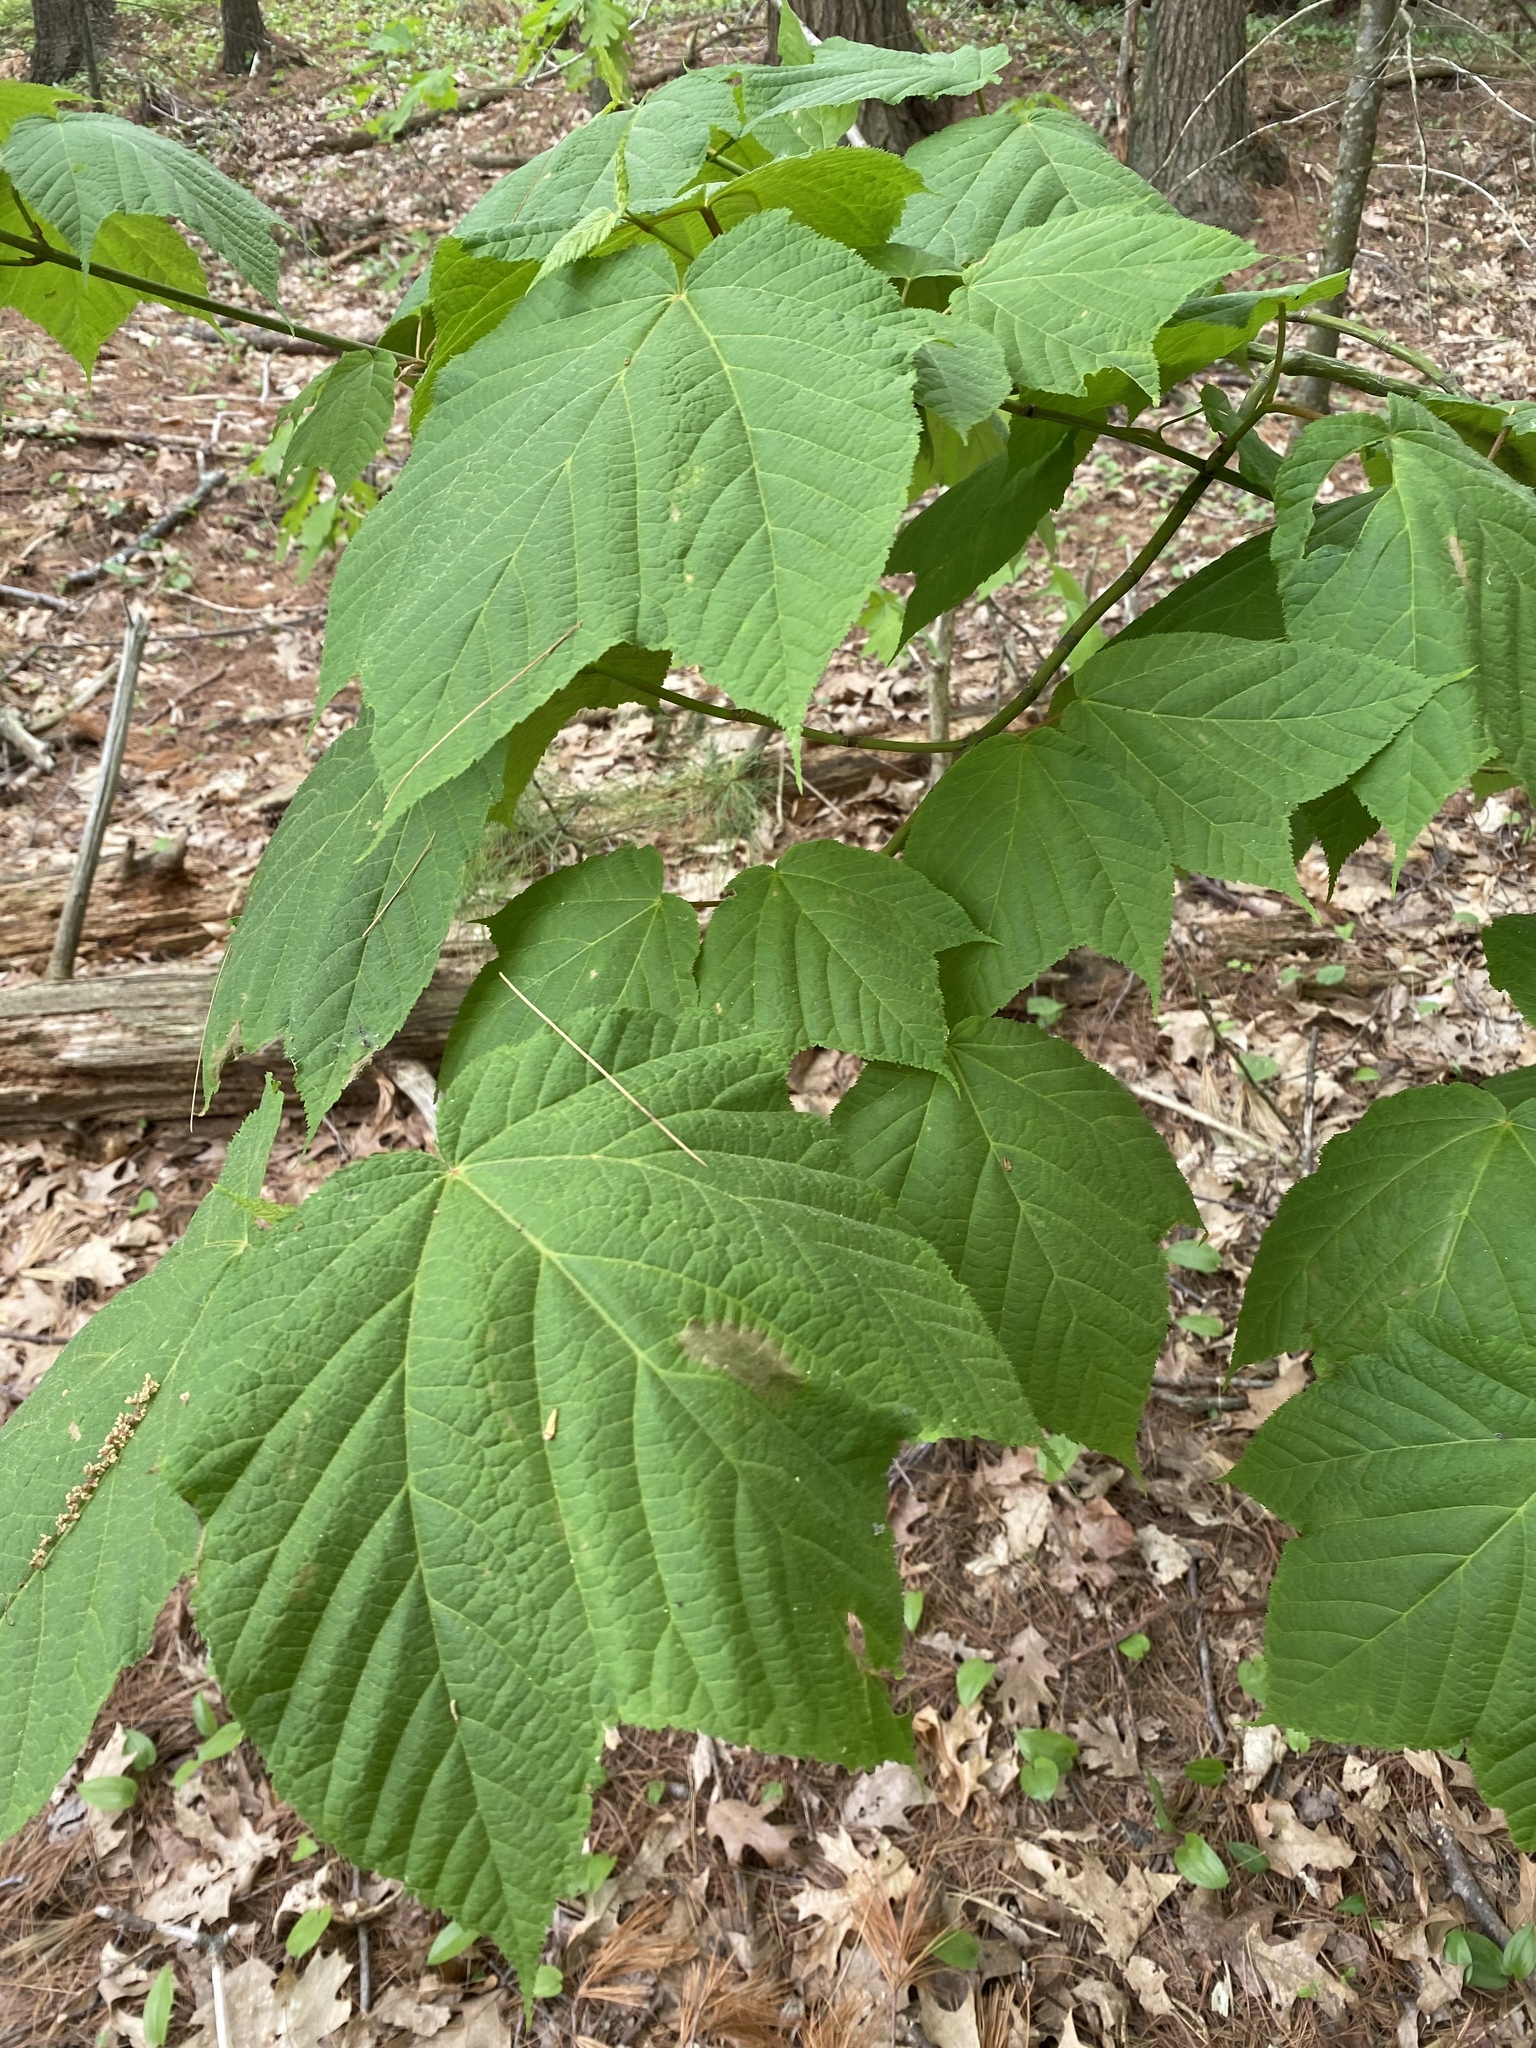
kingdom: Plantae
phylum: Tracheophyta
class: Magnoliopsida
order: Sapindales
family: Sapindaceae
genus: Acer
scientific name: Acer pensylvanicum
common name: Moosewood
